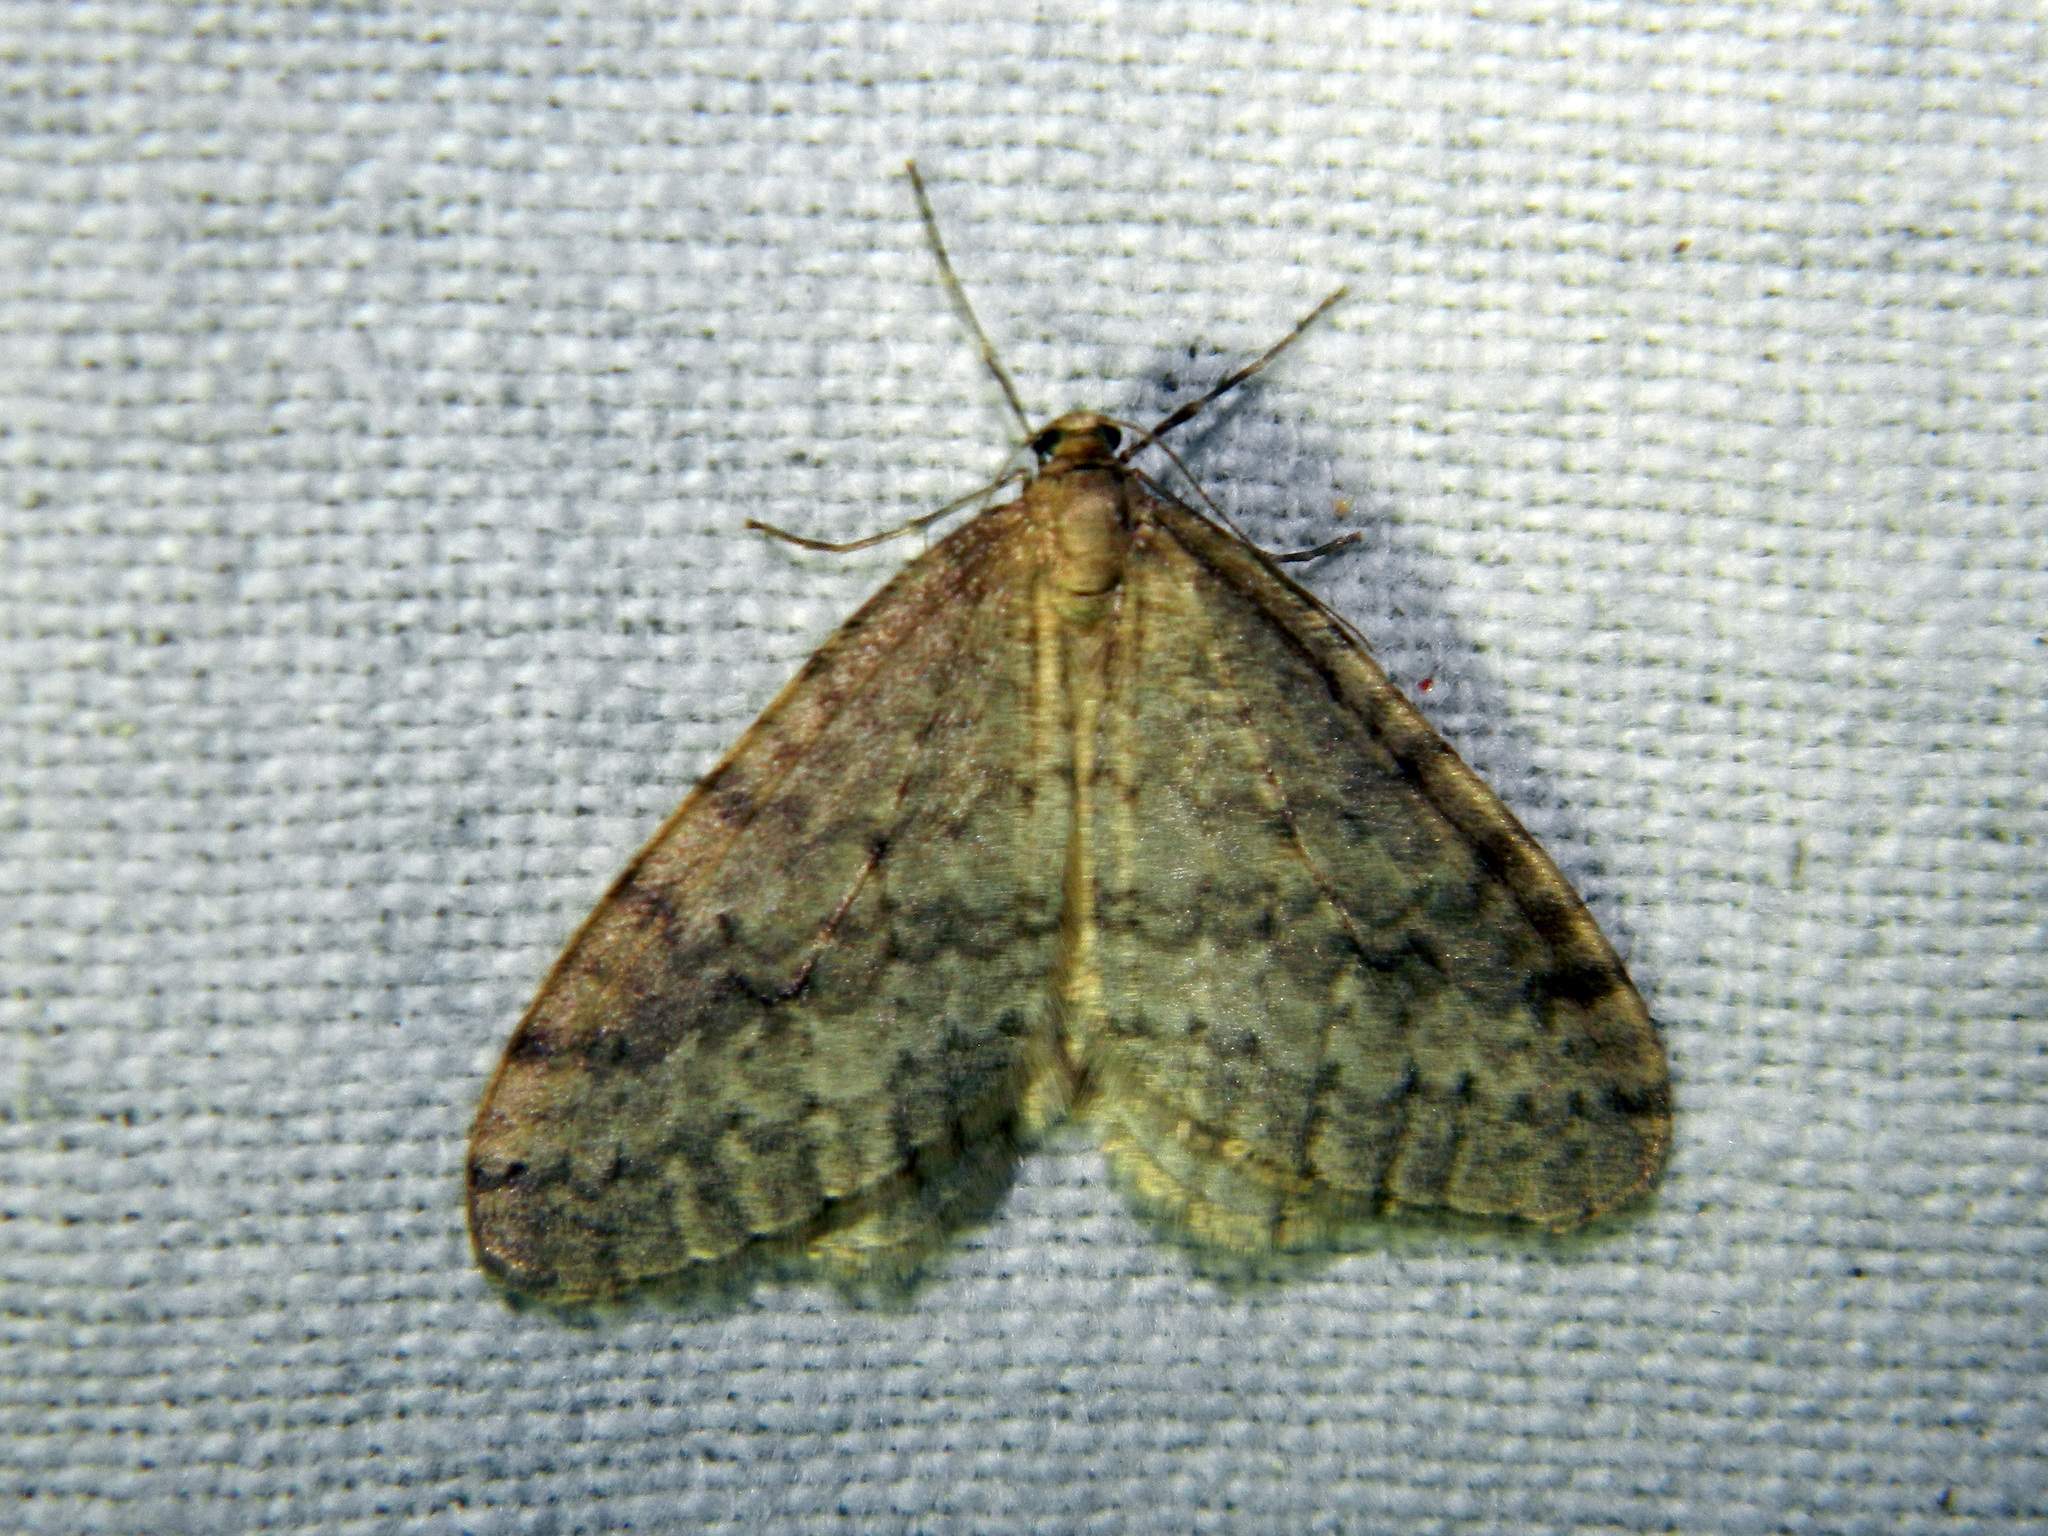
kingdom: Animalia
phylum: Arthropoda
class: Insecta
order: Lepidoptera
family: Geometridae
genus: Operophtera
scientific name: Operophtera bruceata
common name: Bruce spanworm
